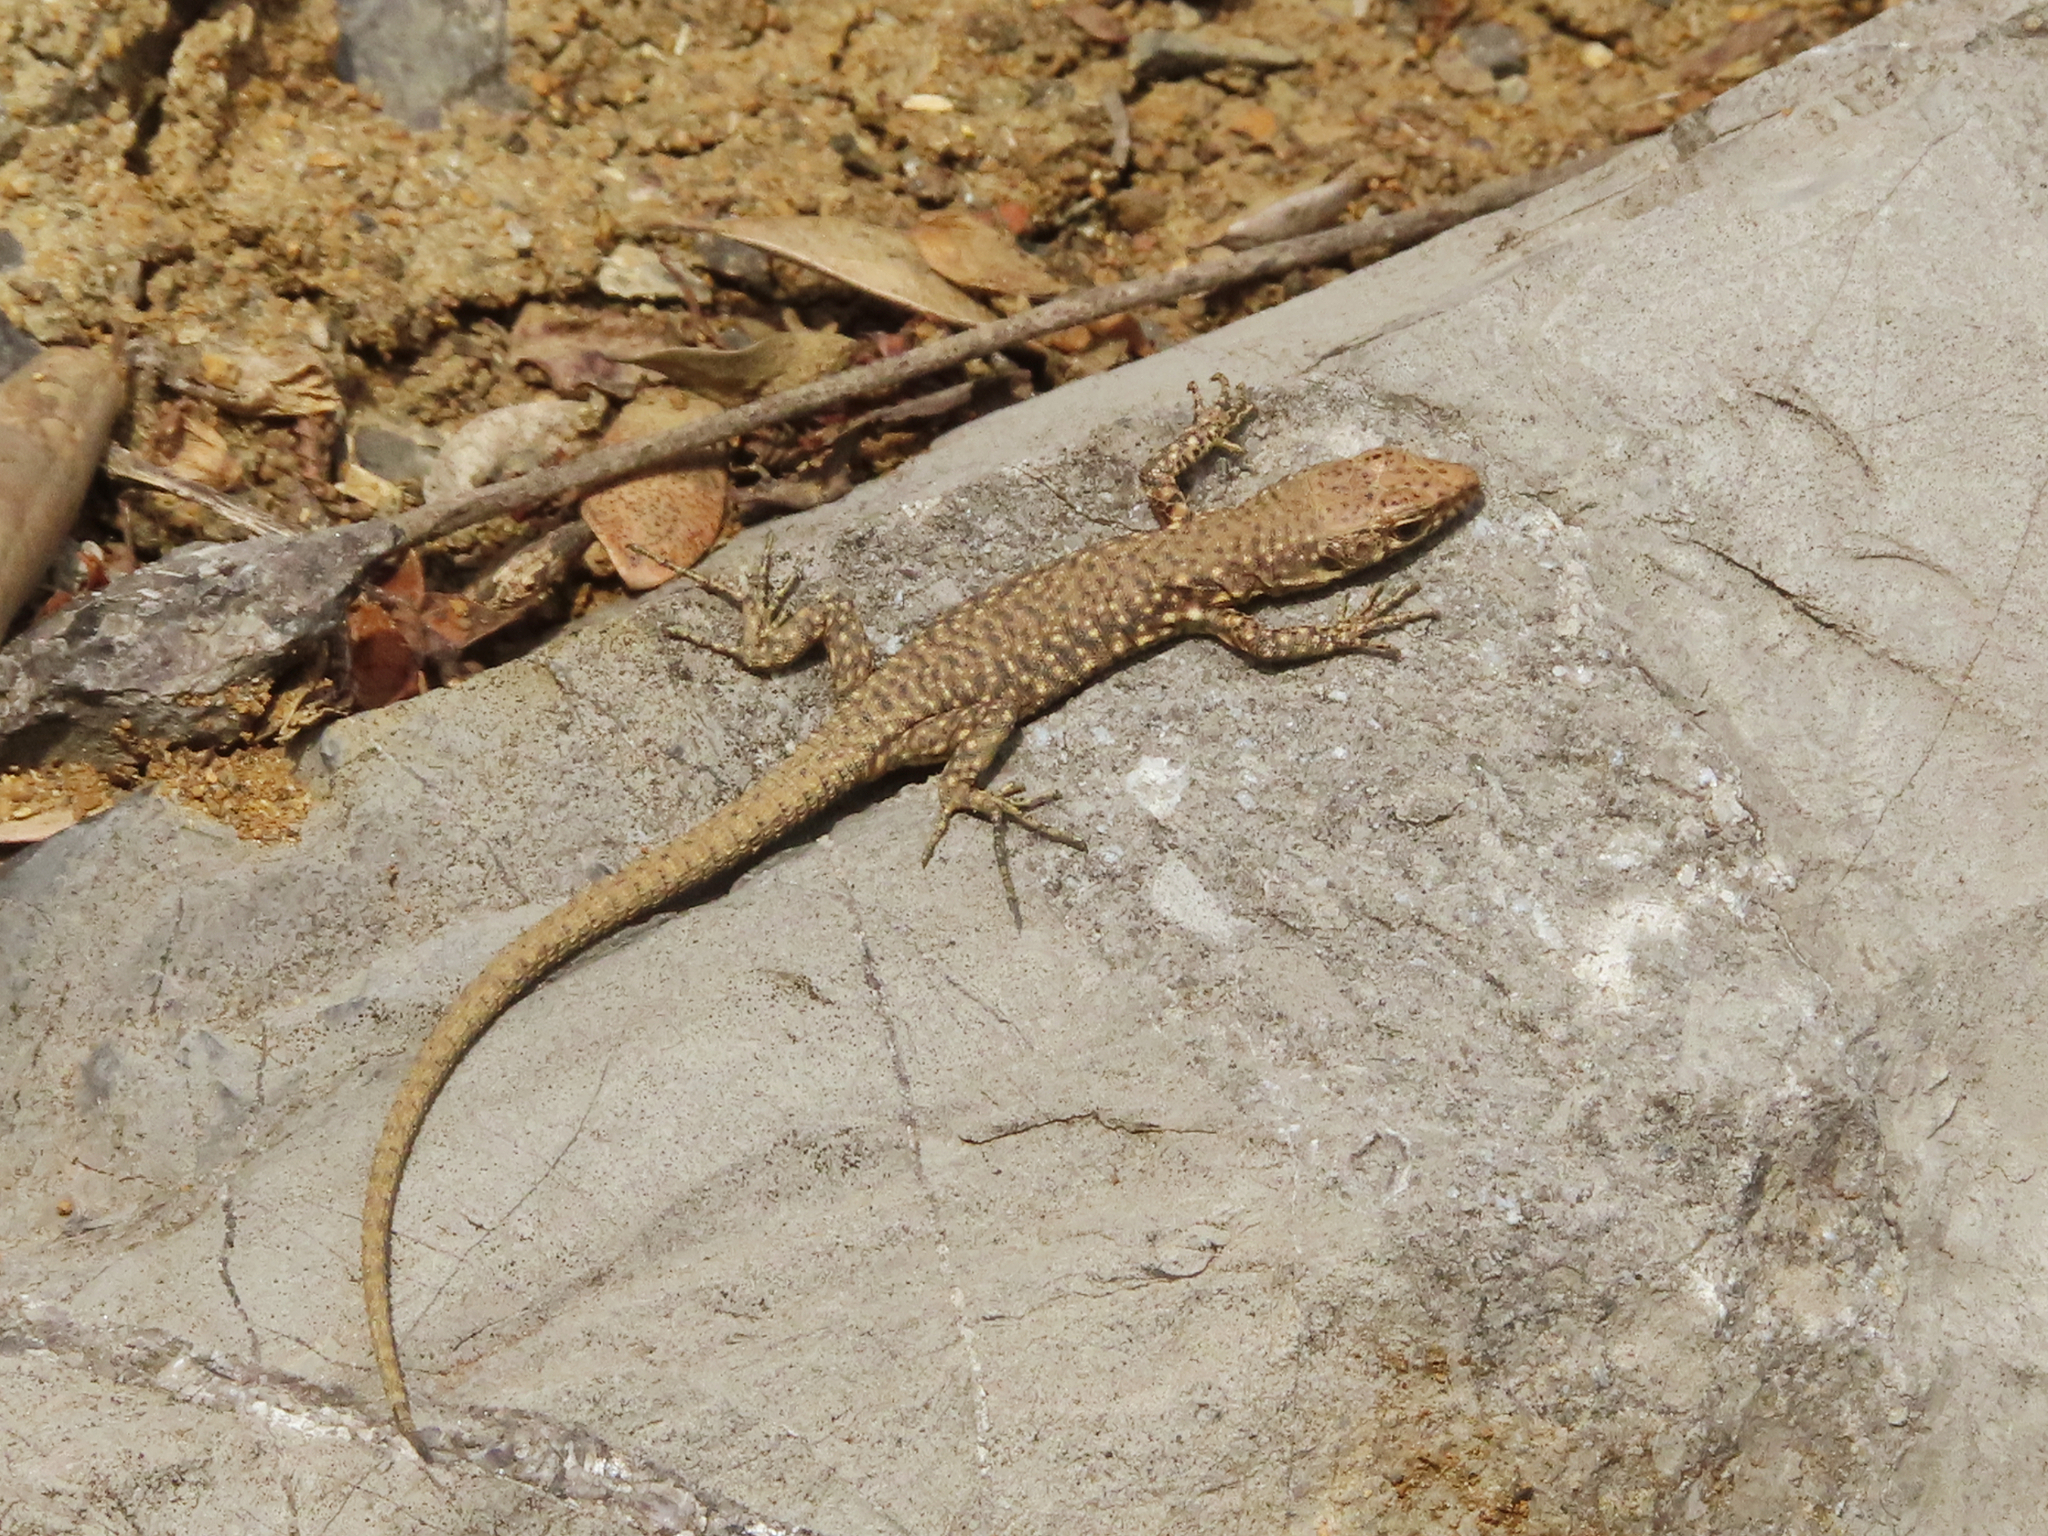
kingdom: Animalia
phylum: Chordata
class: Squamata
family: Lacertidae
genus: Darevskia
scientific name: Darevskia bithynica
